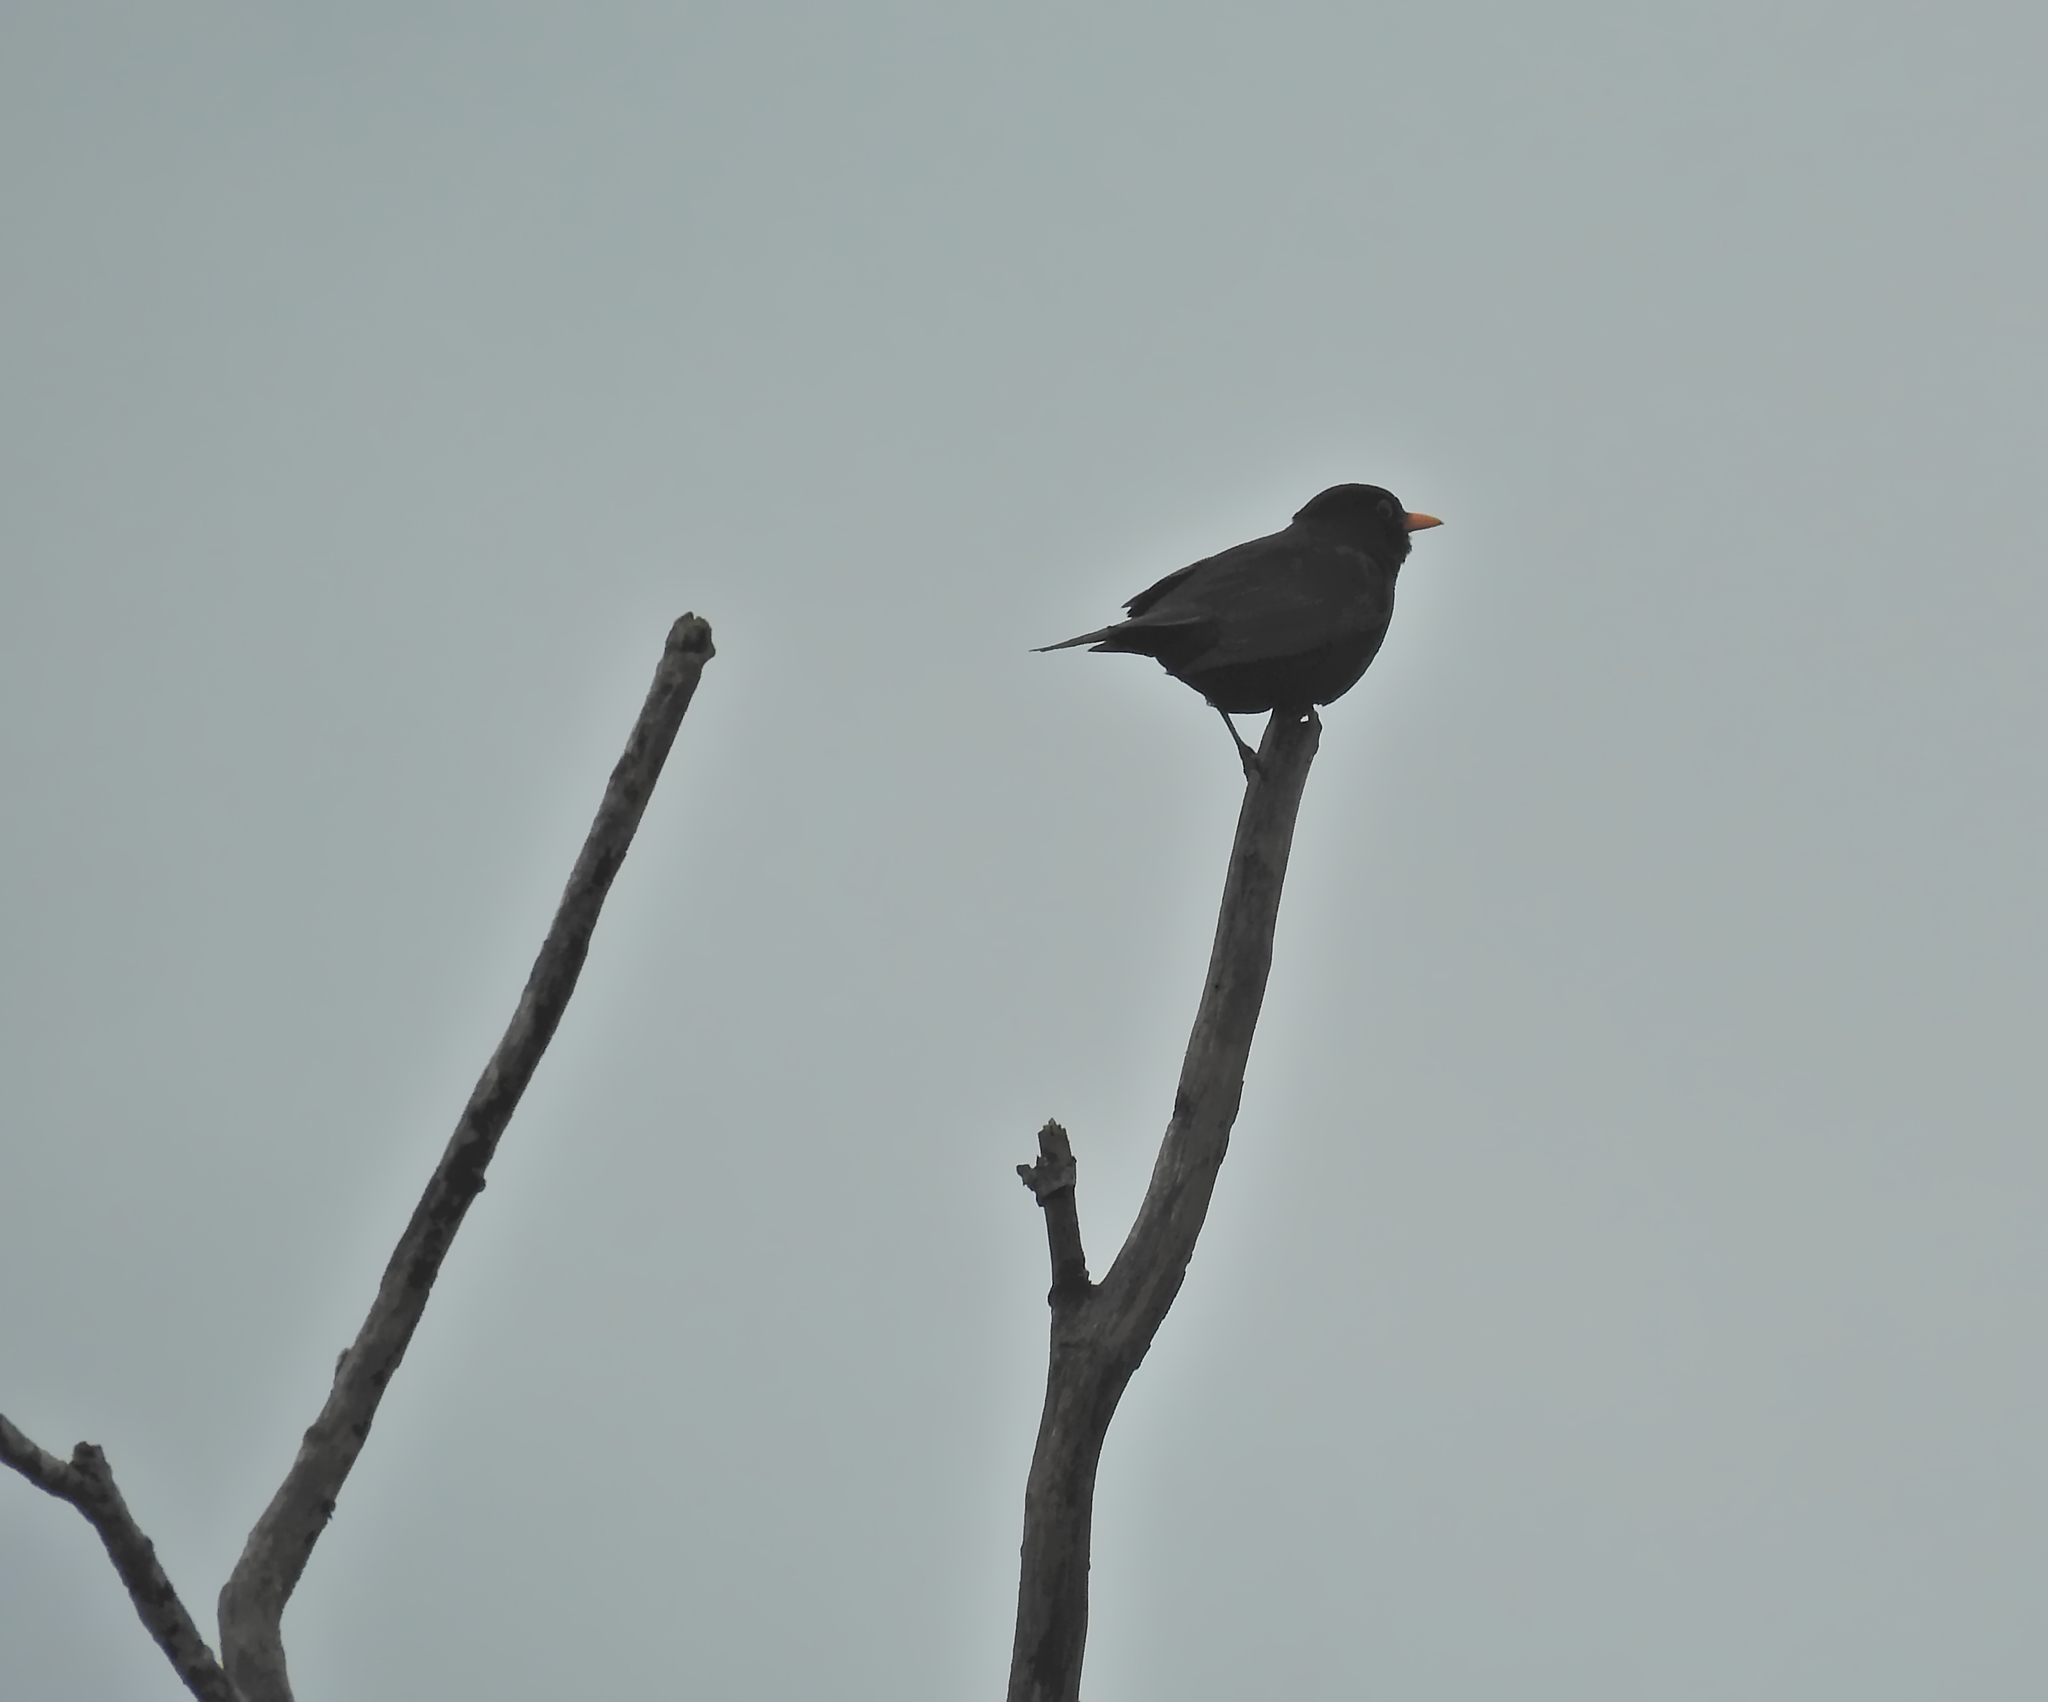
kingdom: Animalia
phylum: Chordata
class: Aves
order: Passeriformes
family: Turdidae
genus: Turdus
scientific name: Turdus merula
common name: Common blackbird
